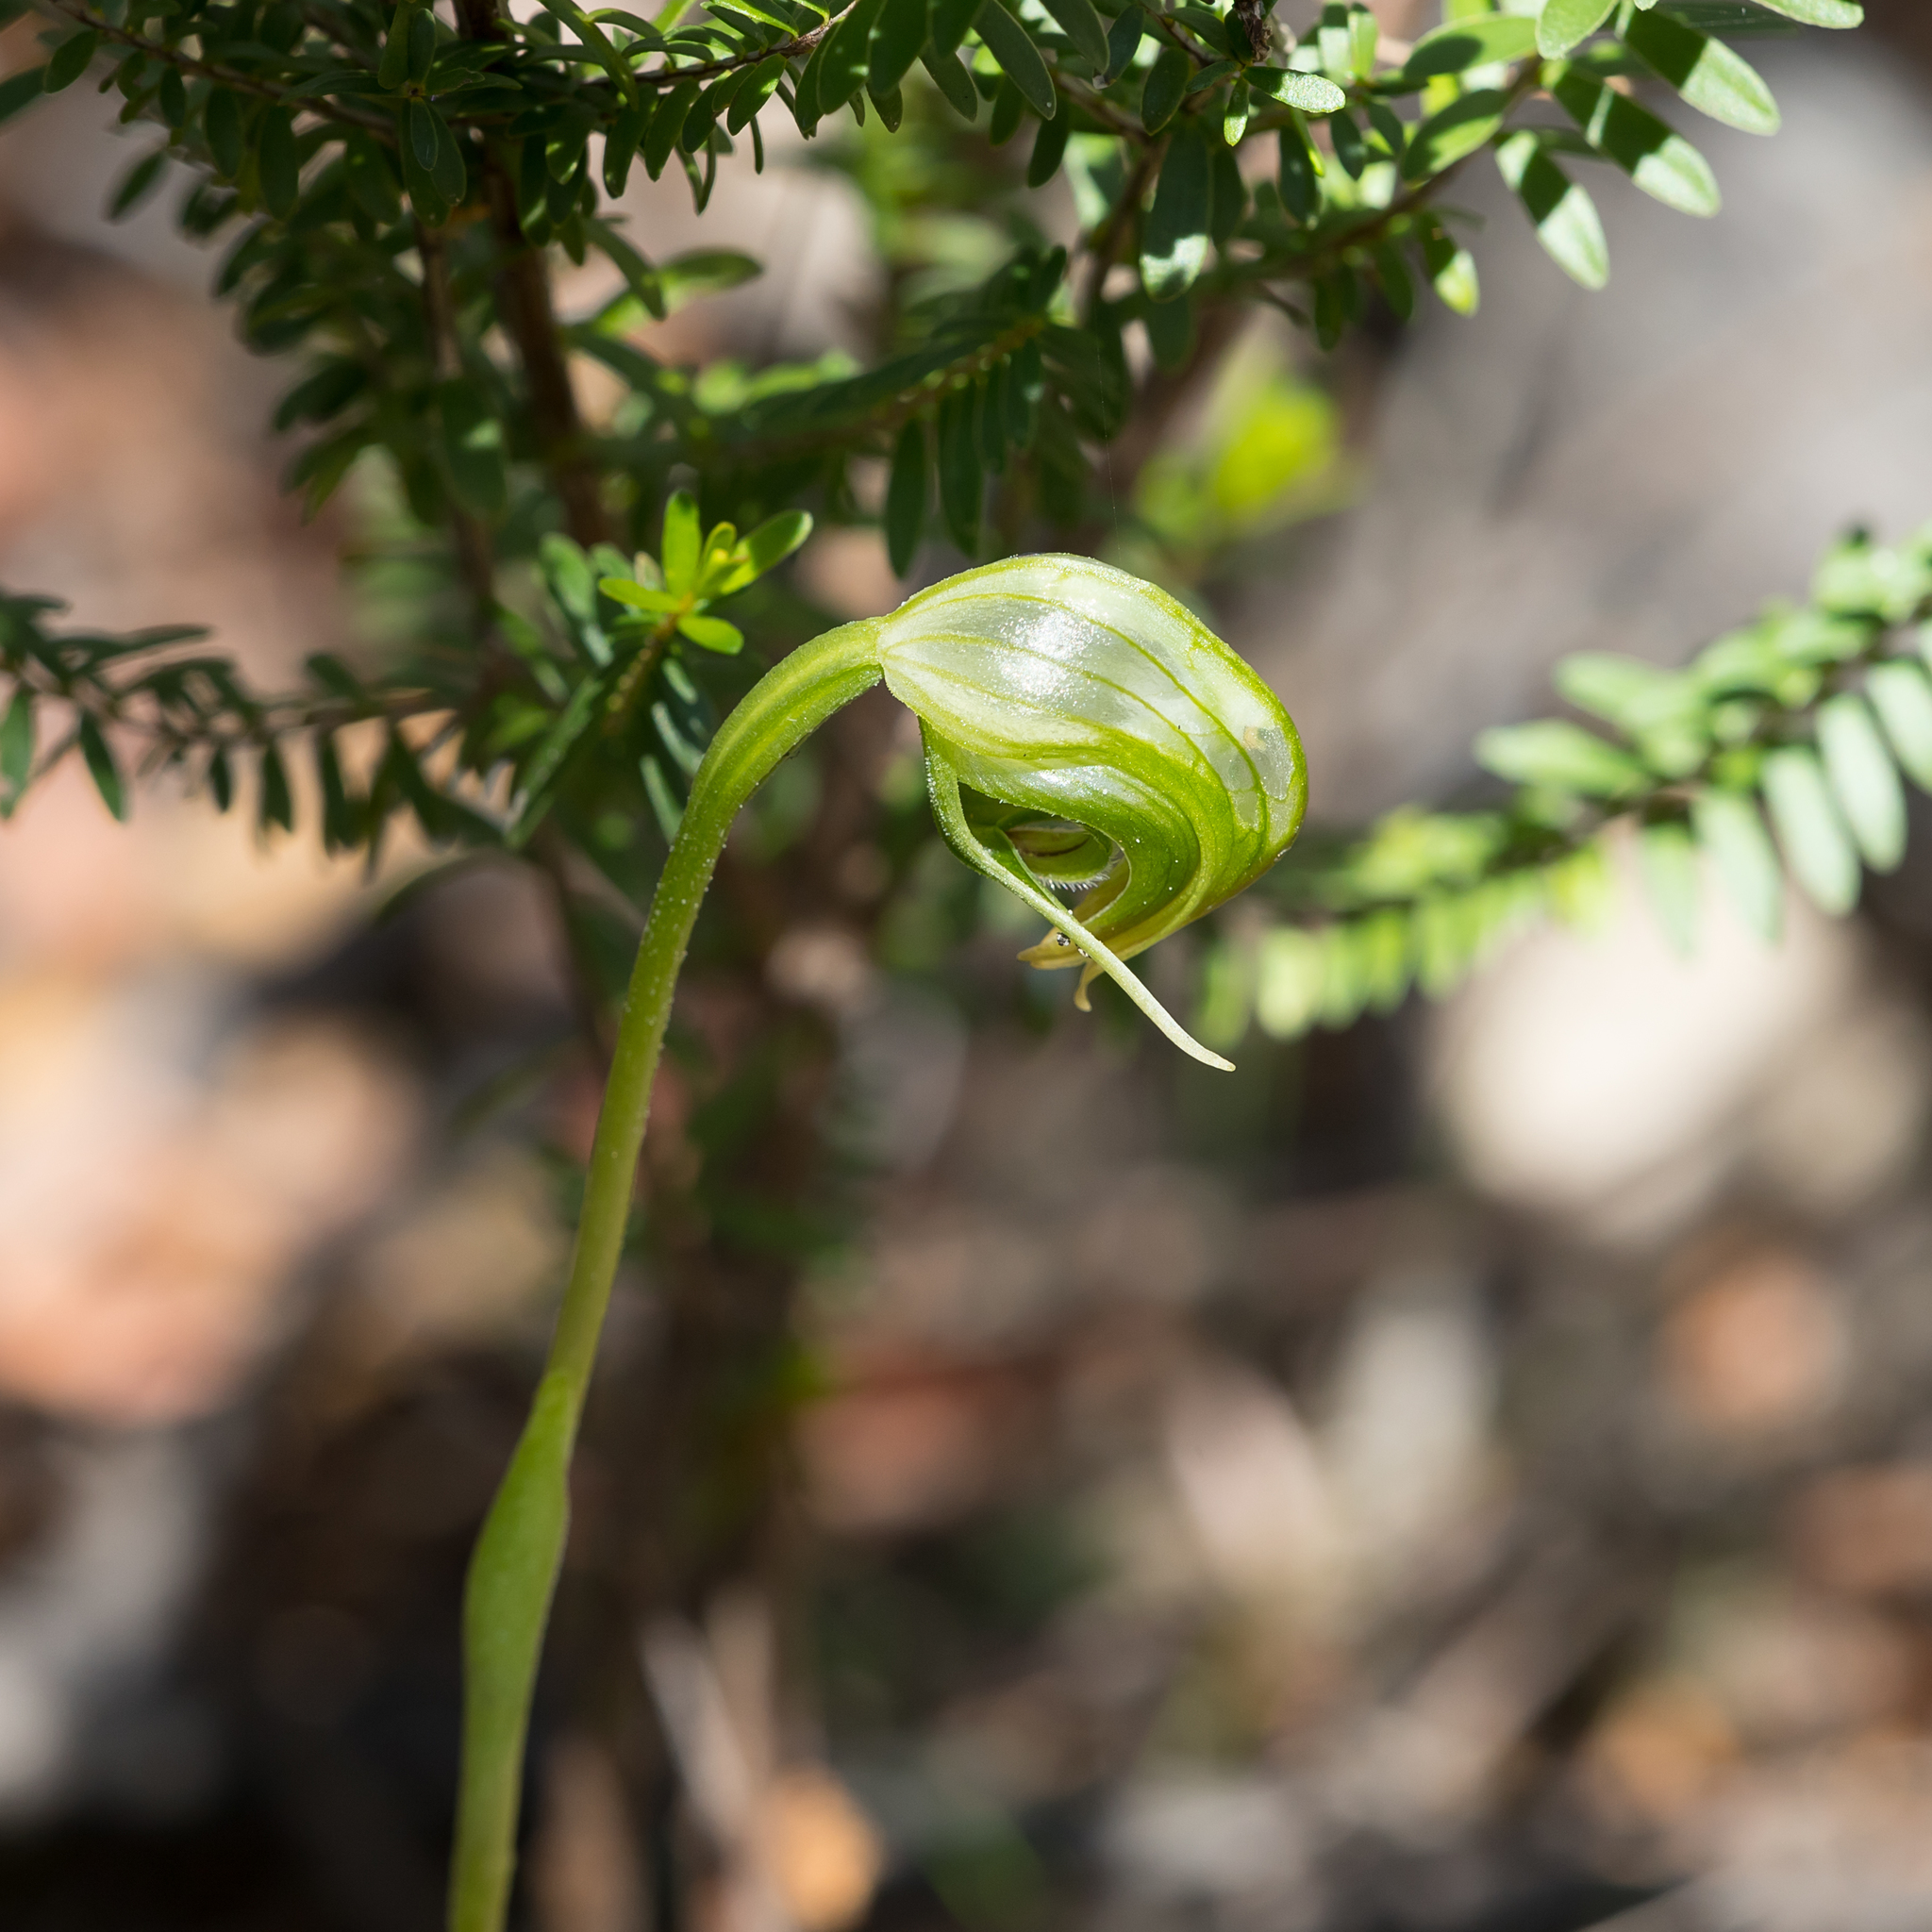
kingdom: Plantae
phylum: Tracheophyta
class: Liliopsida
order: Asparagales
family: Orchidaceae
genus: Pterostylis
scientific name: Pterostylis nutans
